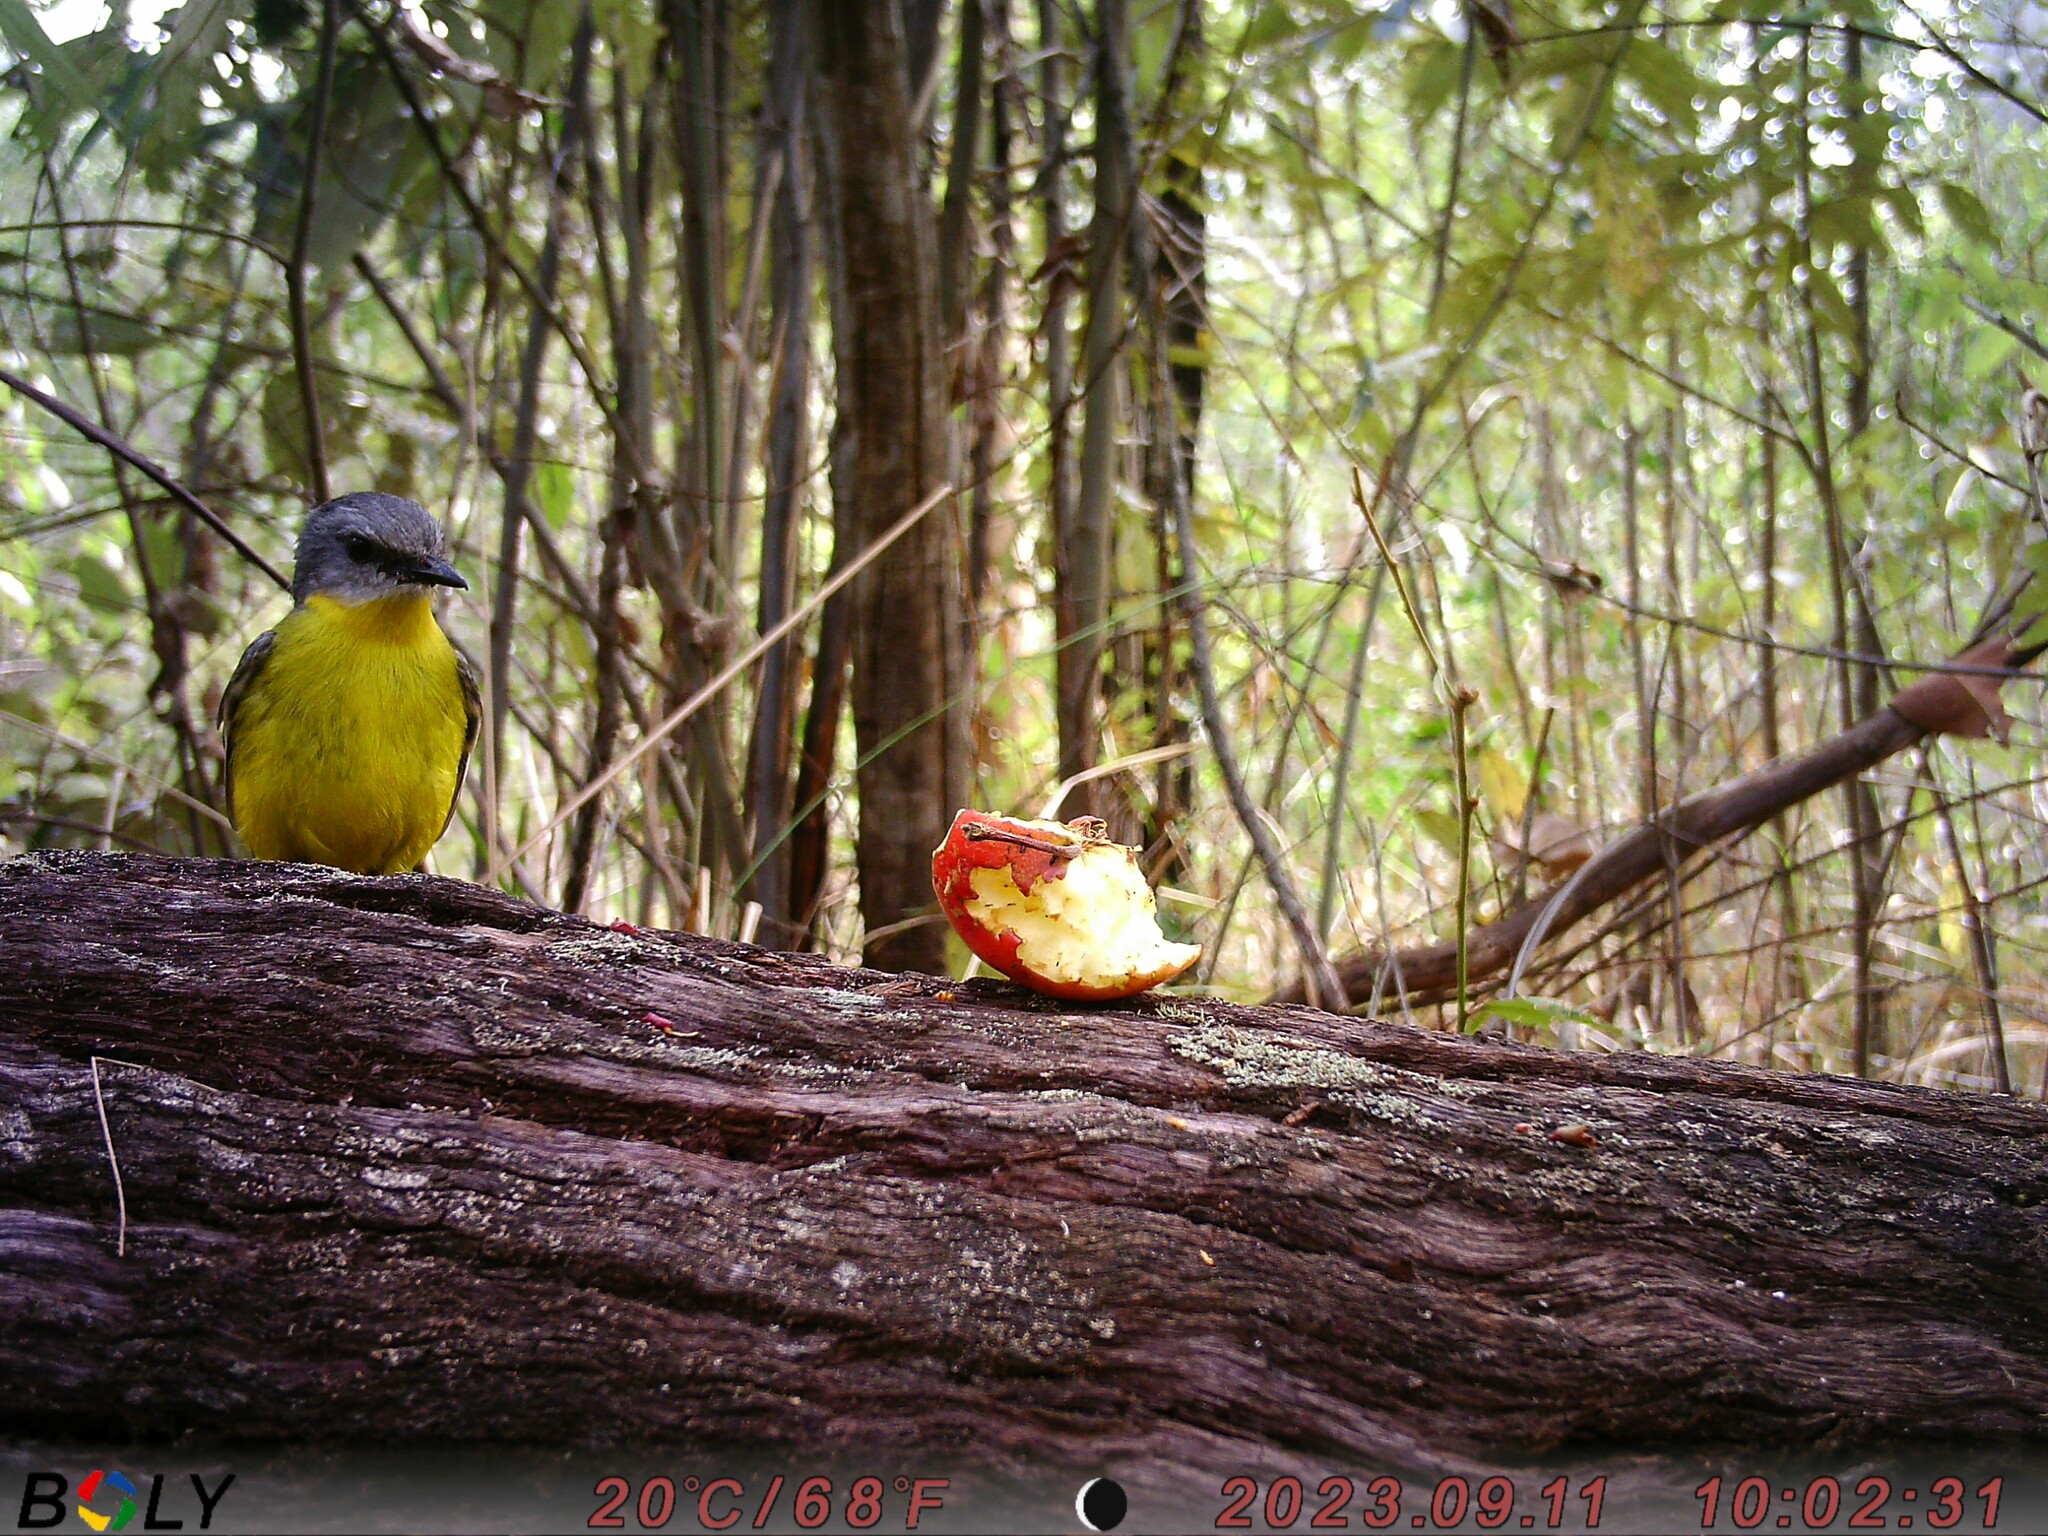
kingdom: Animalia
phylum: Chordata
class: Aves
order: Passeriformes
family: Petroicidae
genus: Eopsaltria
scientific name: Eopsaltria australis
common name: Eastern yellow robin
